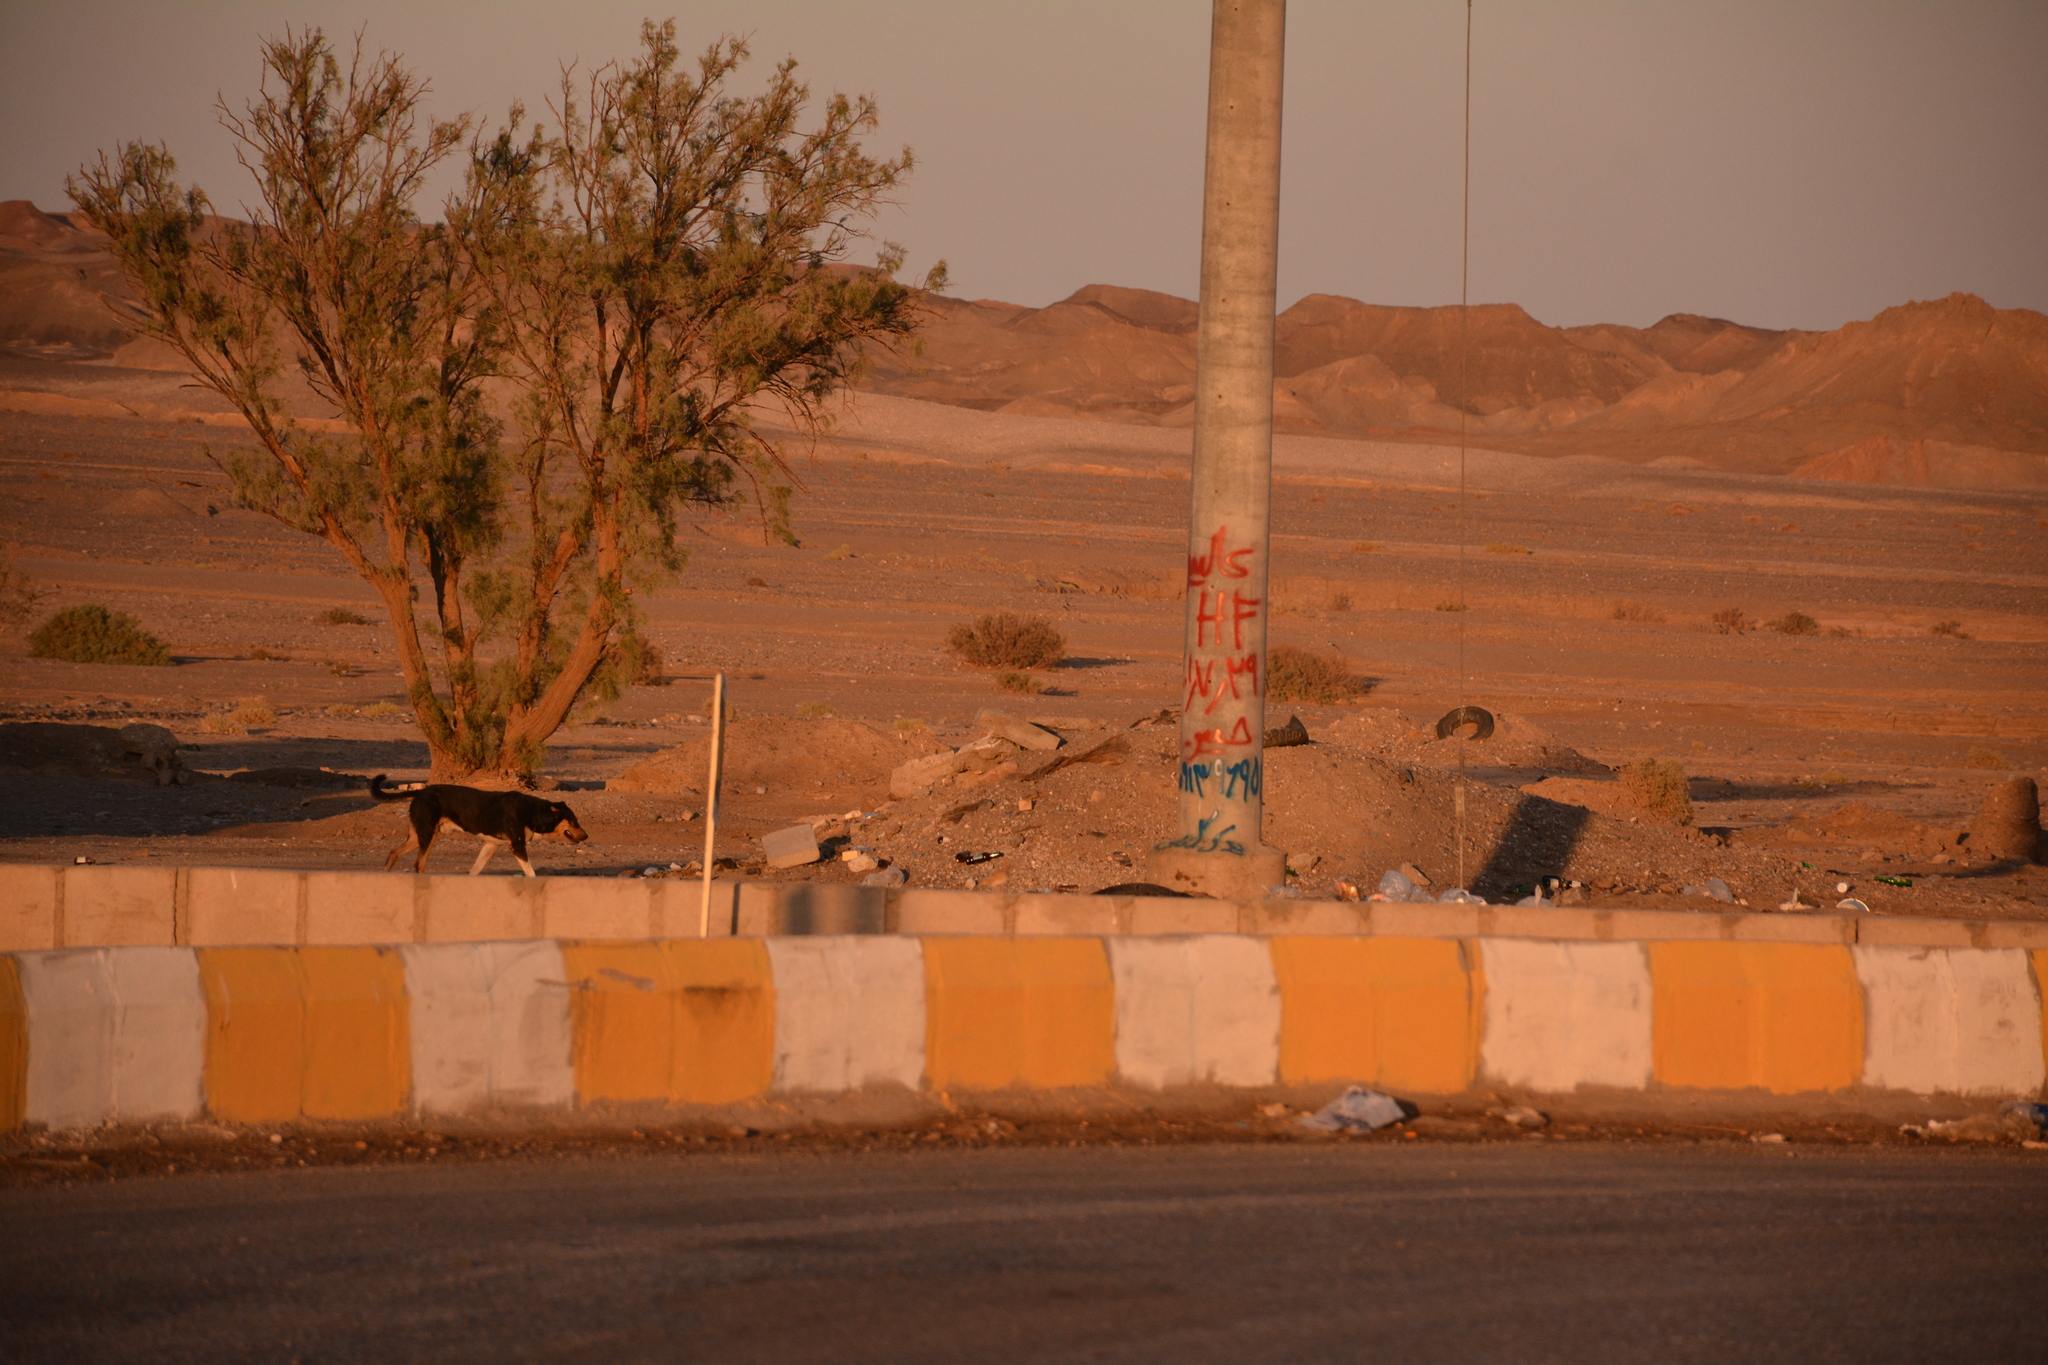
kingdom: Animalia
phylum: Chordata
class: Mammalia
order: Carnivora
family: Canidae
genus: Canis
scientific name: Canis lupus
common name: Gray wolf
